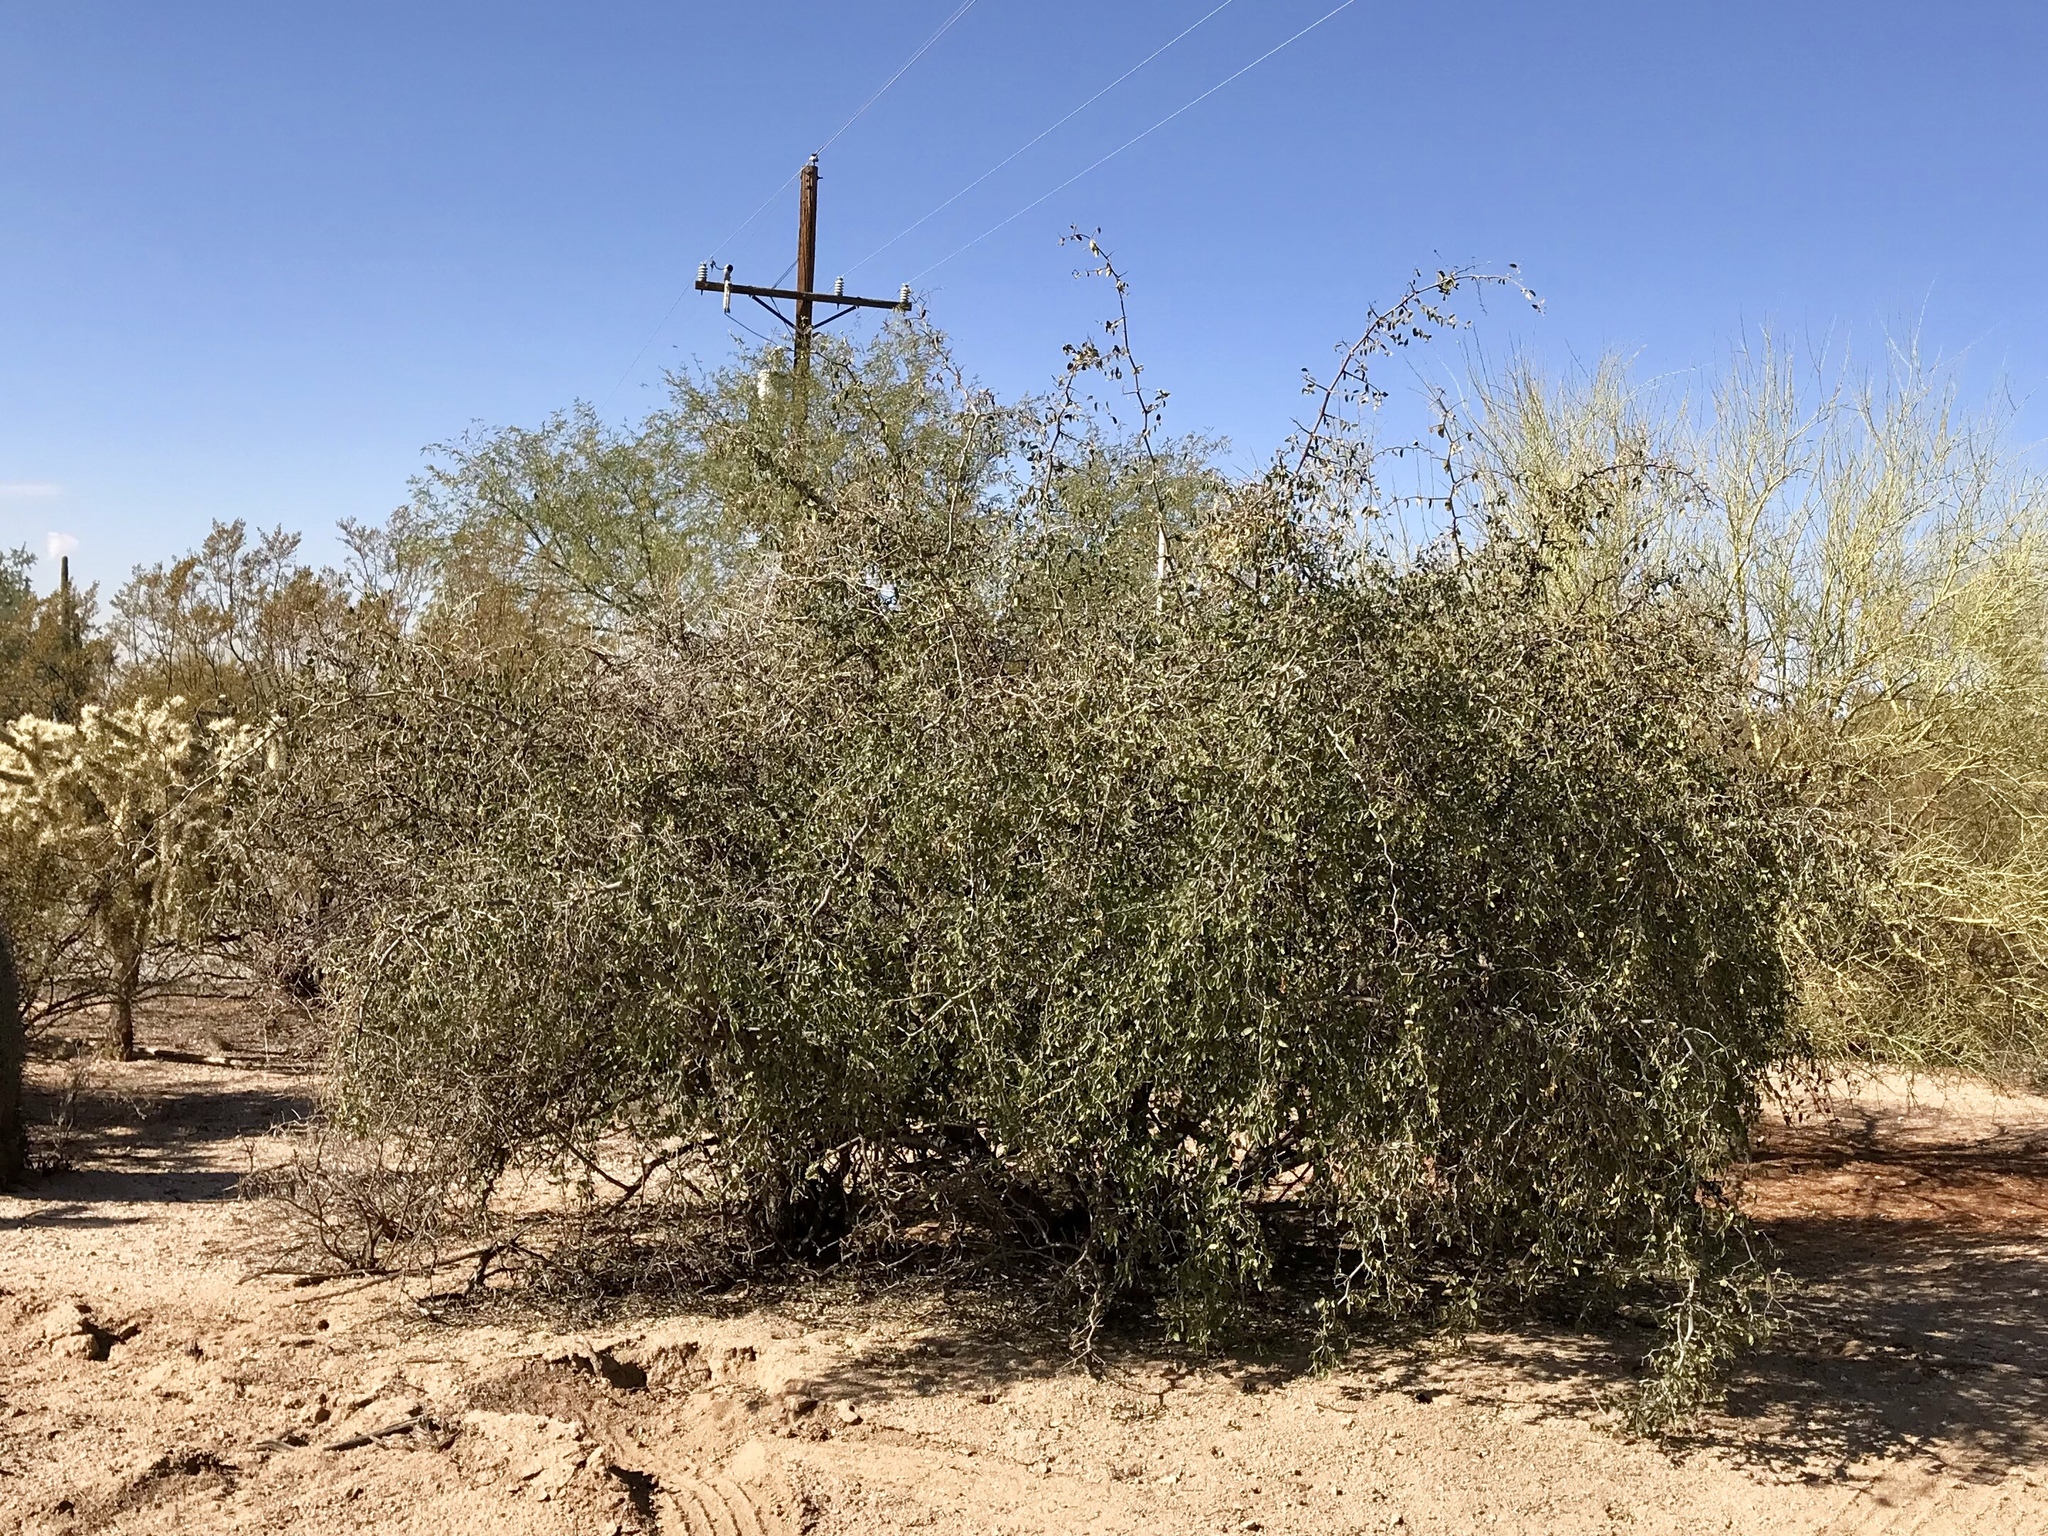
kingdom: Plantae
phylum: Tracheophyta
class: Magnoliopsida
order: Rosales
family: Cannabaceae
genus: Celtis
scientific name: Celtis pallida
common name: Desert hackberry
